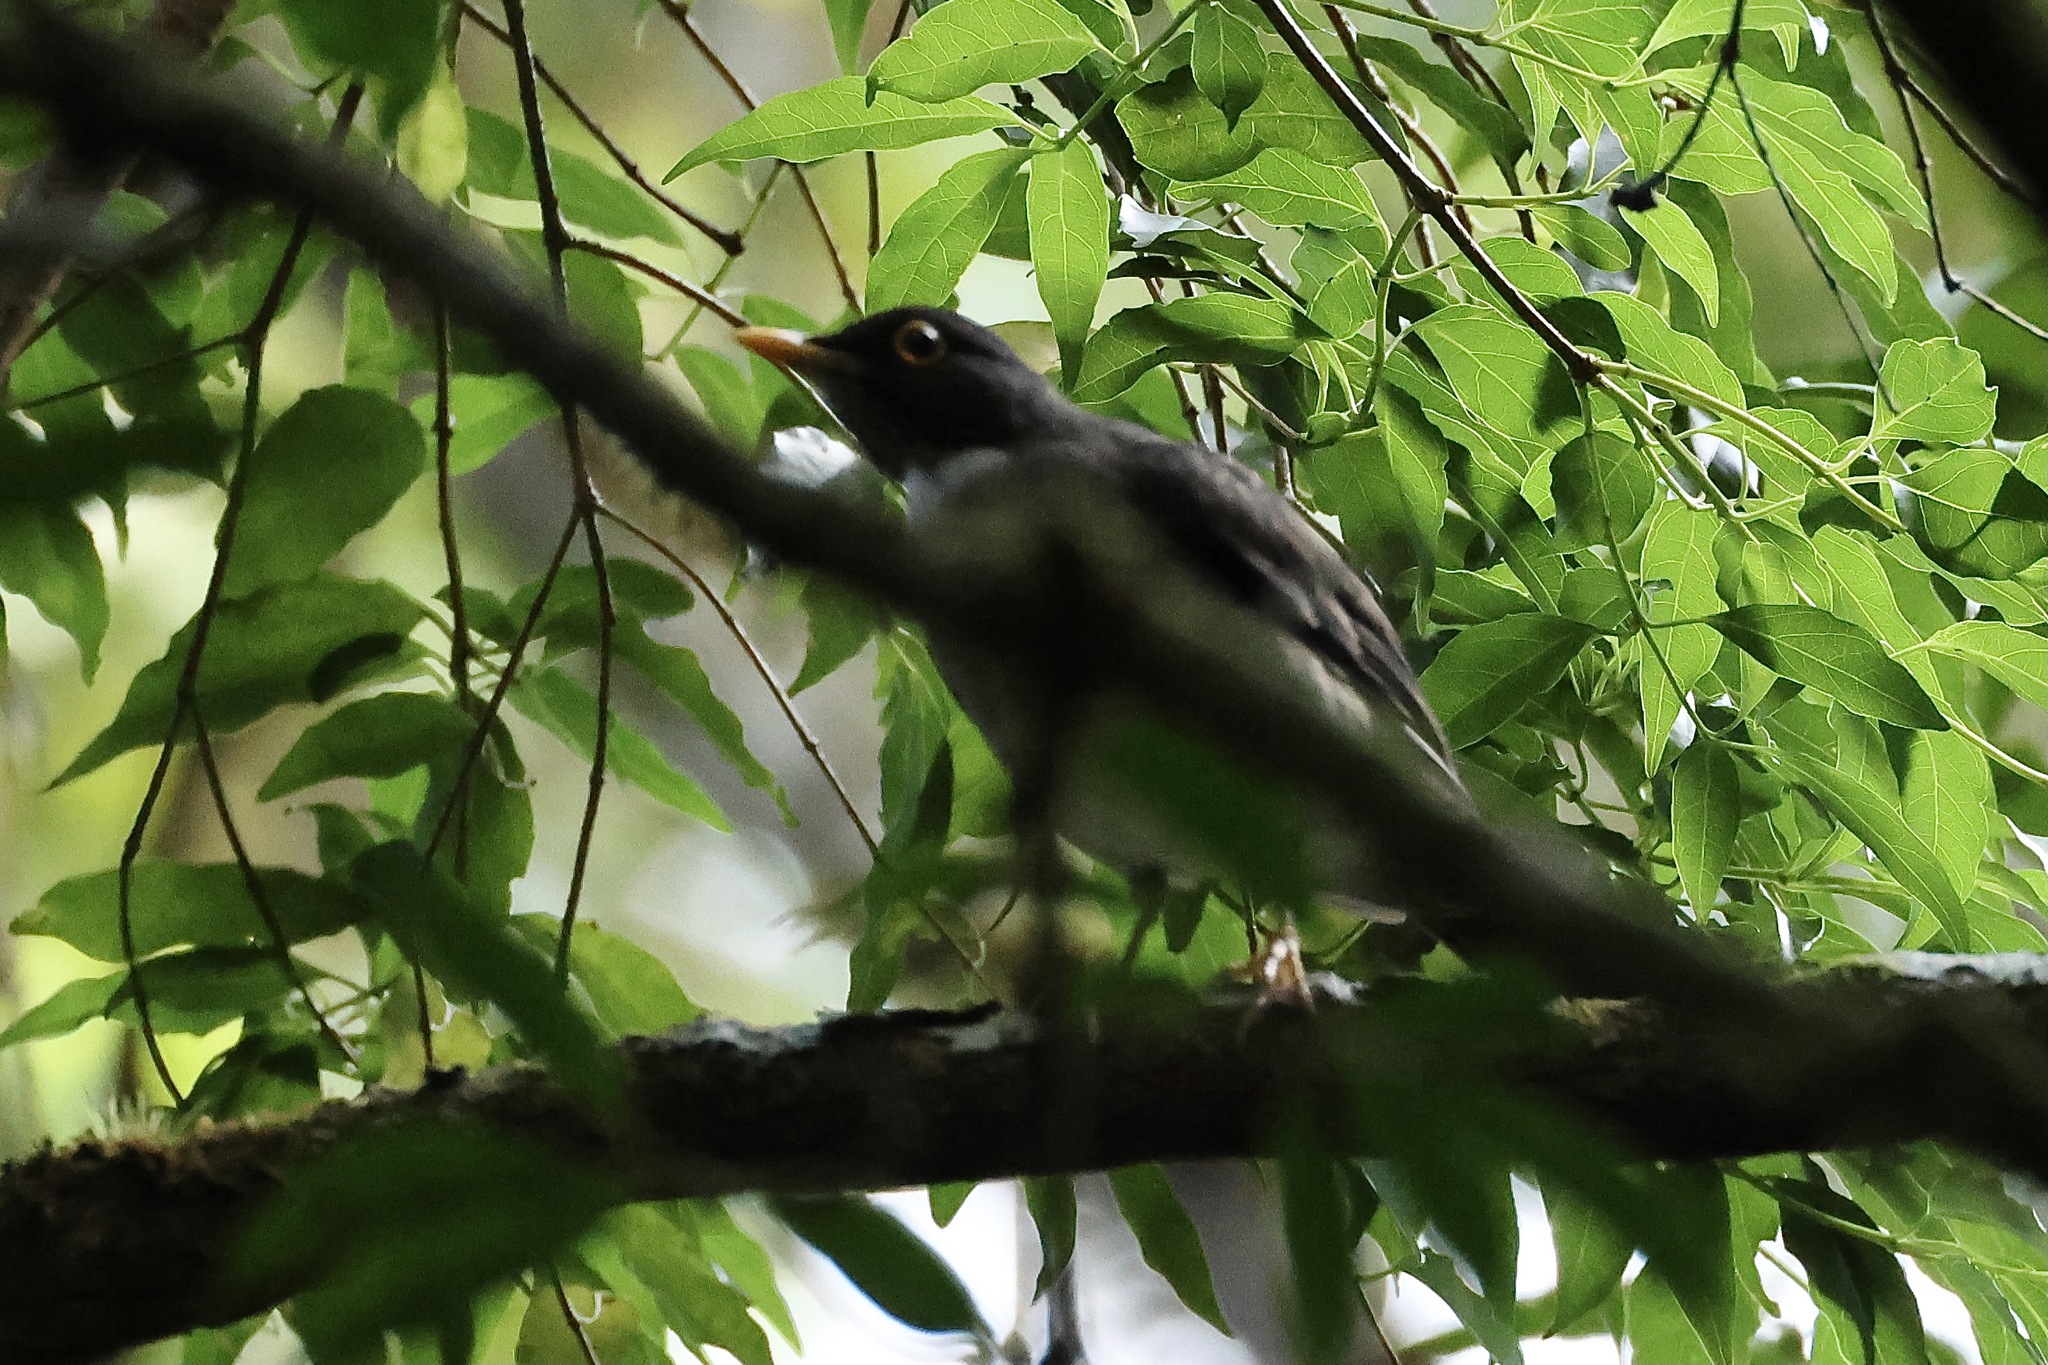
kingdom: Animalia
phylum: Chordata
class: Aves
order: Passeriformes
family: Turdidae
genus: Turdus
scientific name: Turdus assimilis
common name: White-throated thrush
